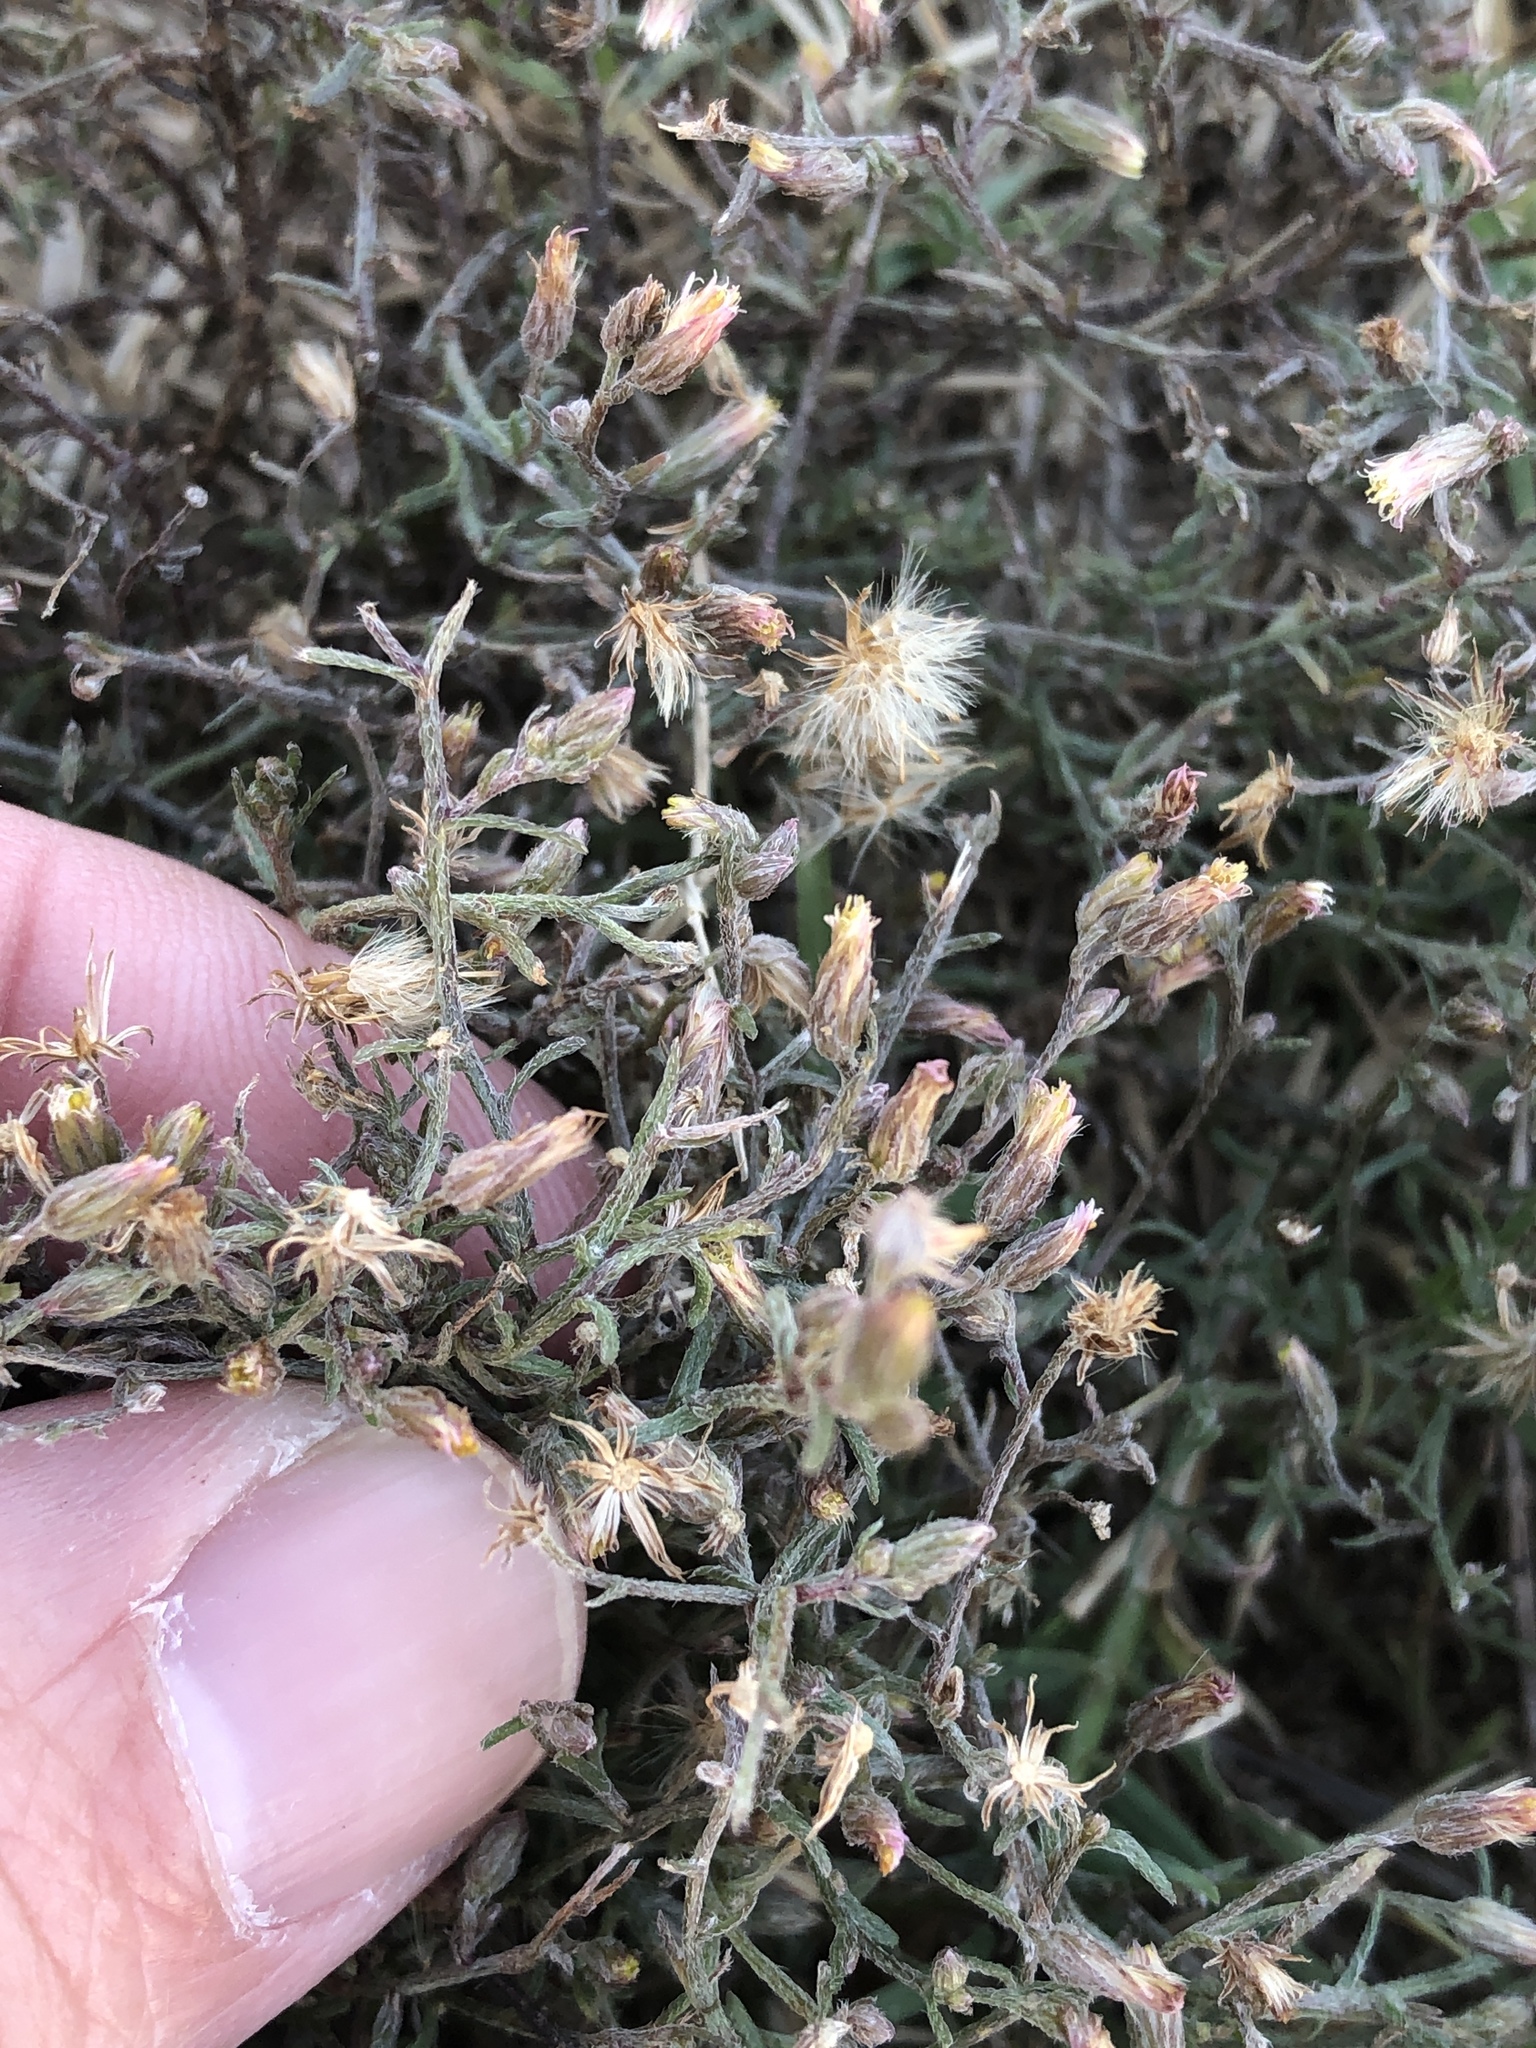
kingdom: Plantae
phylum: Tracheophyta
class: Magnoliopsida
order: Asterales
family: Asteraceae
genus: Erigeron
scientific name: Erigeron divaricatus
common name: Dwarf conyza
